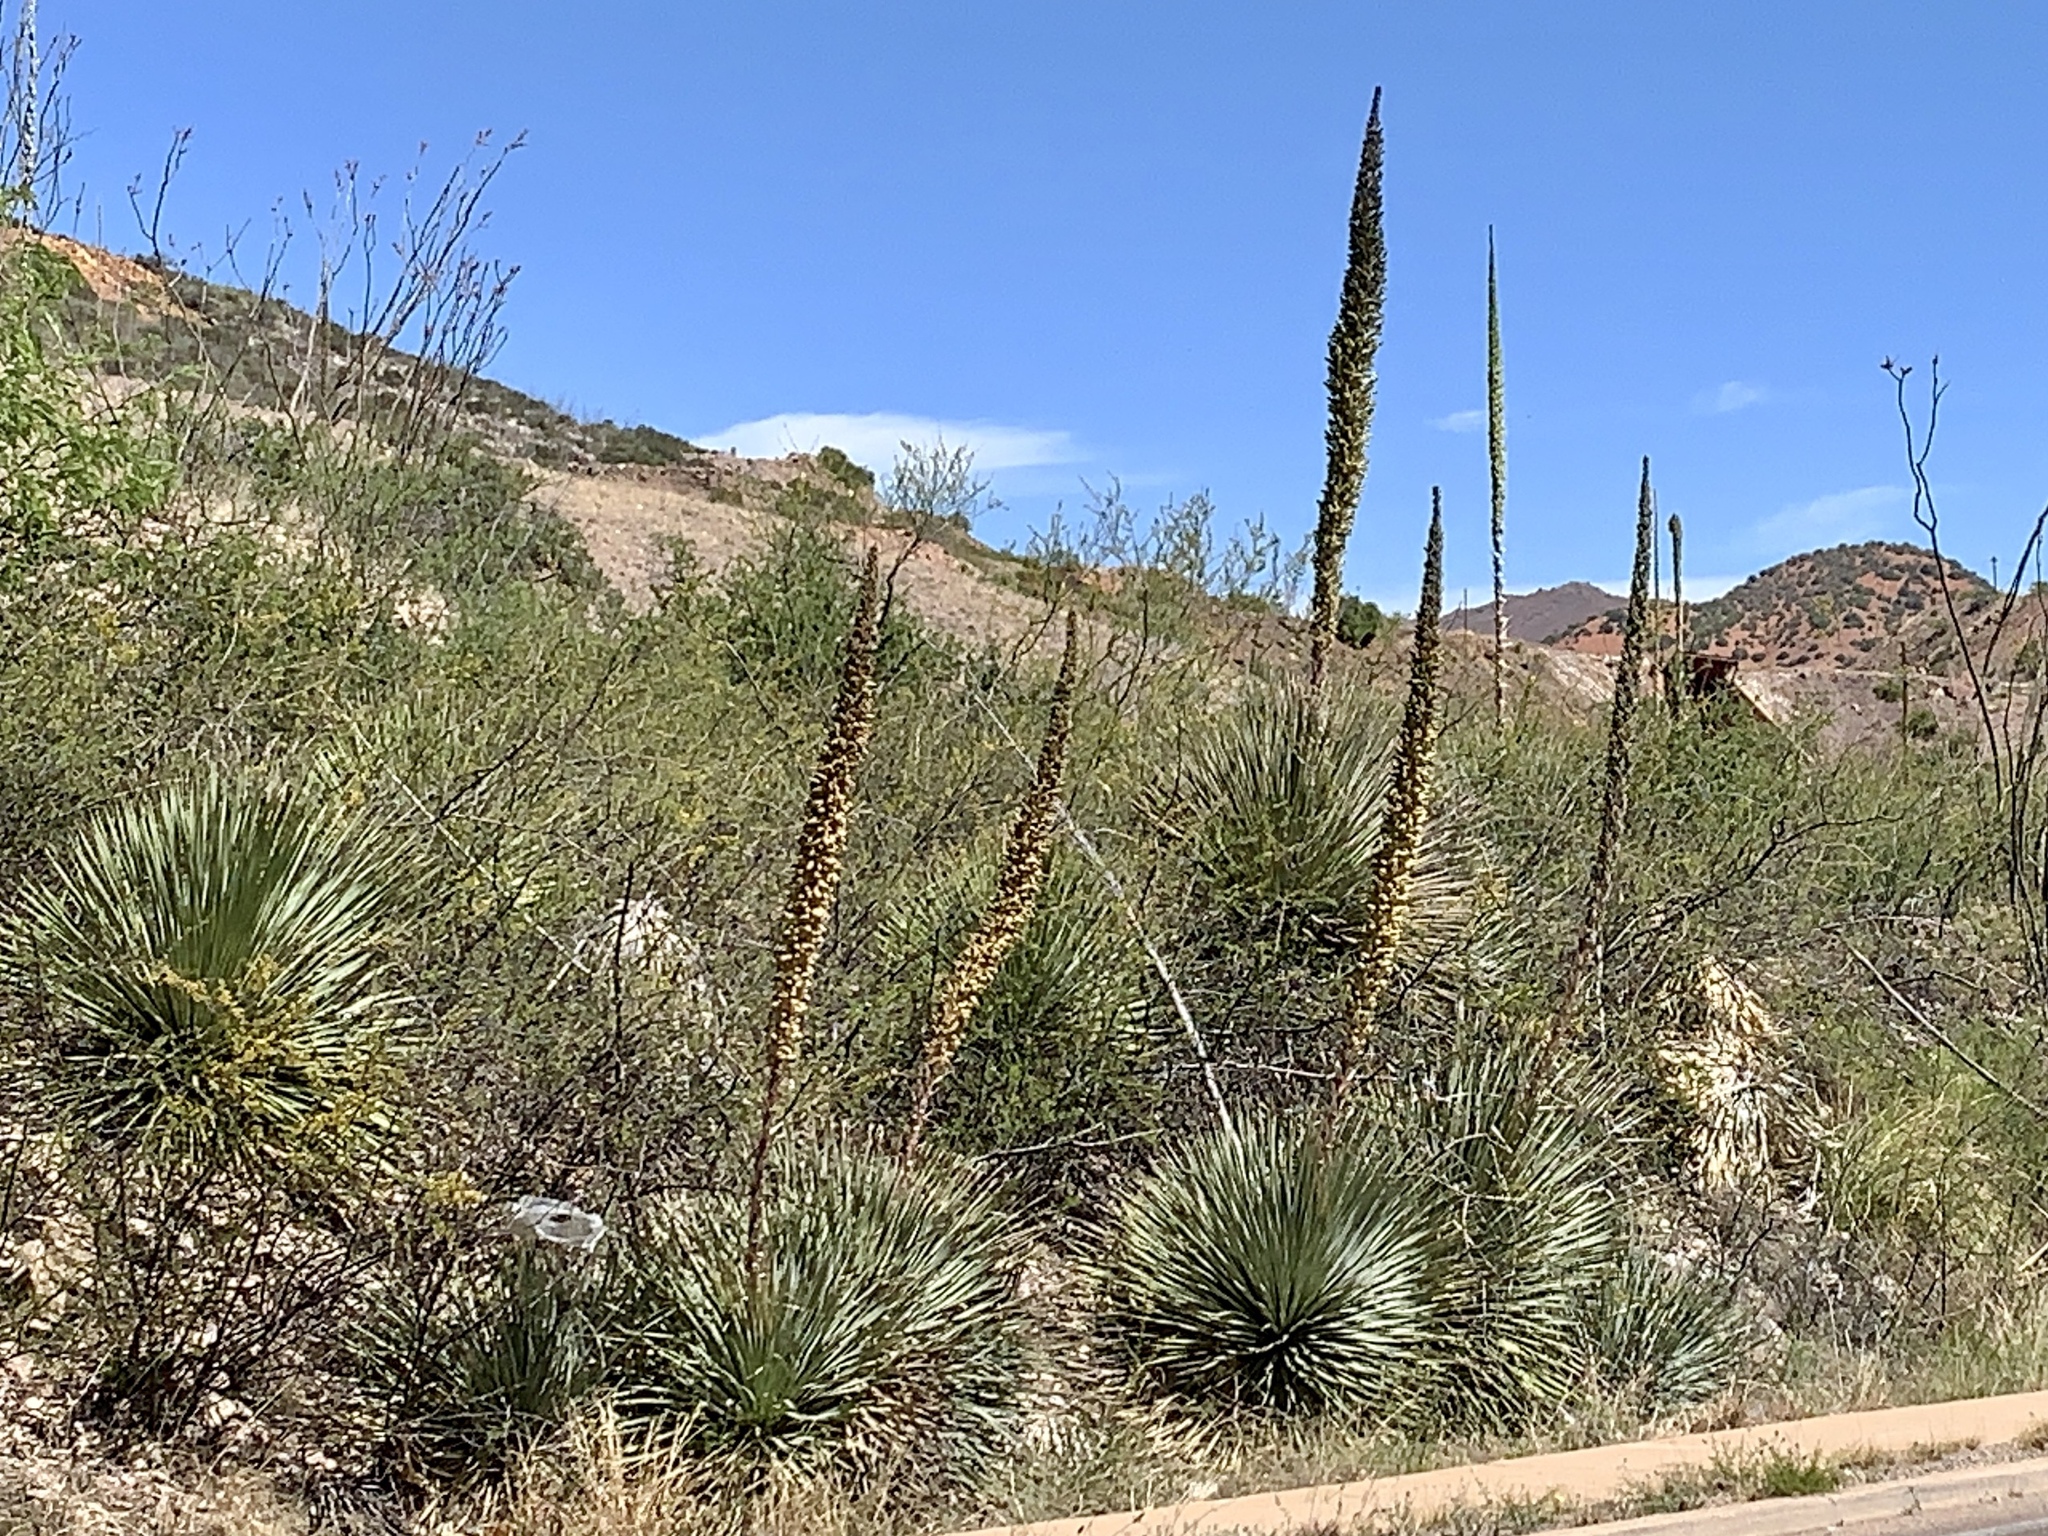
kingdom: Plantae
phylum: Tracheophyta
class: Liliopsida
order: Asparagales
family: Asparagaceae
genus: Dasylirion
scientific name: Dasylirion wheeleri
